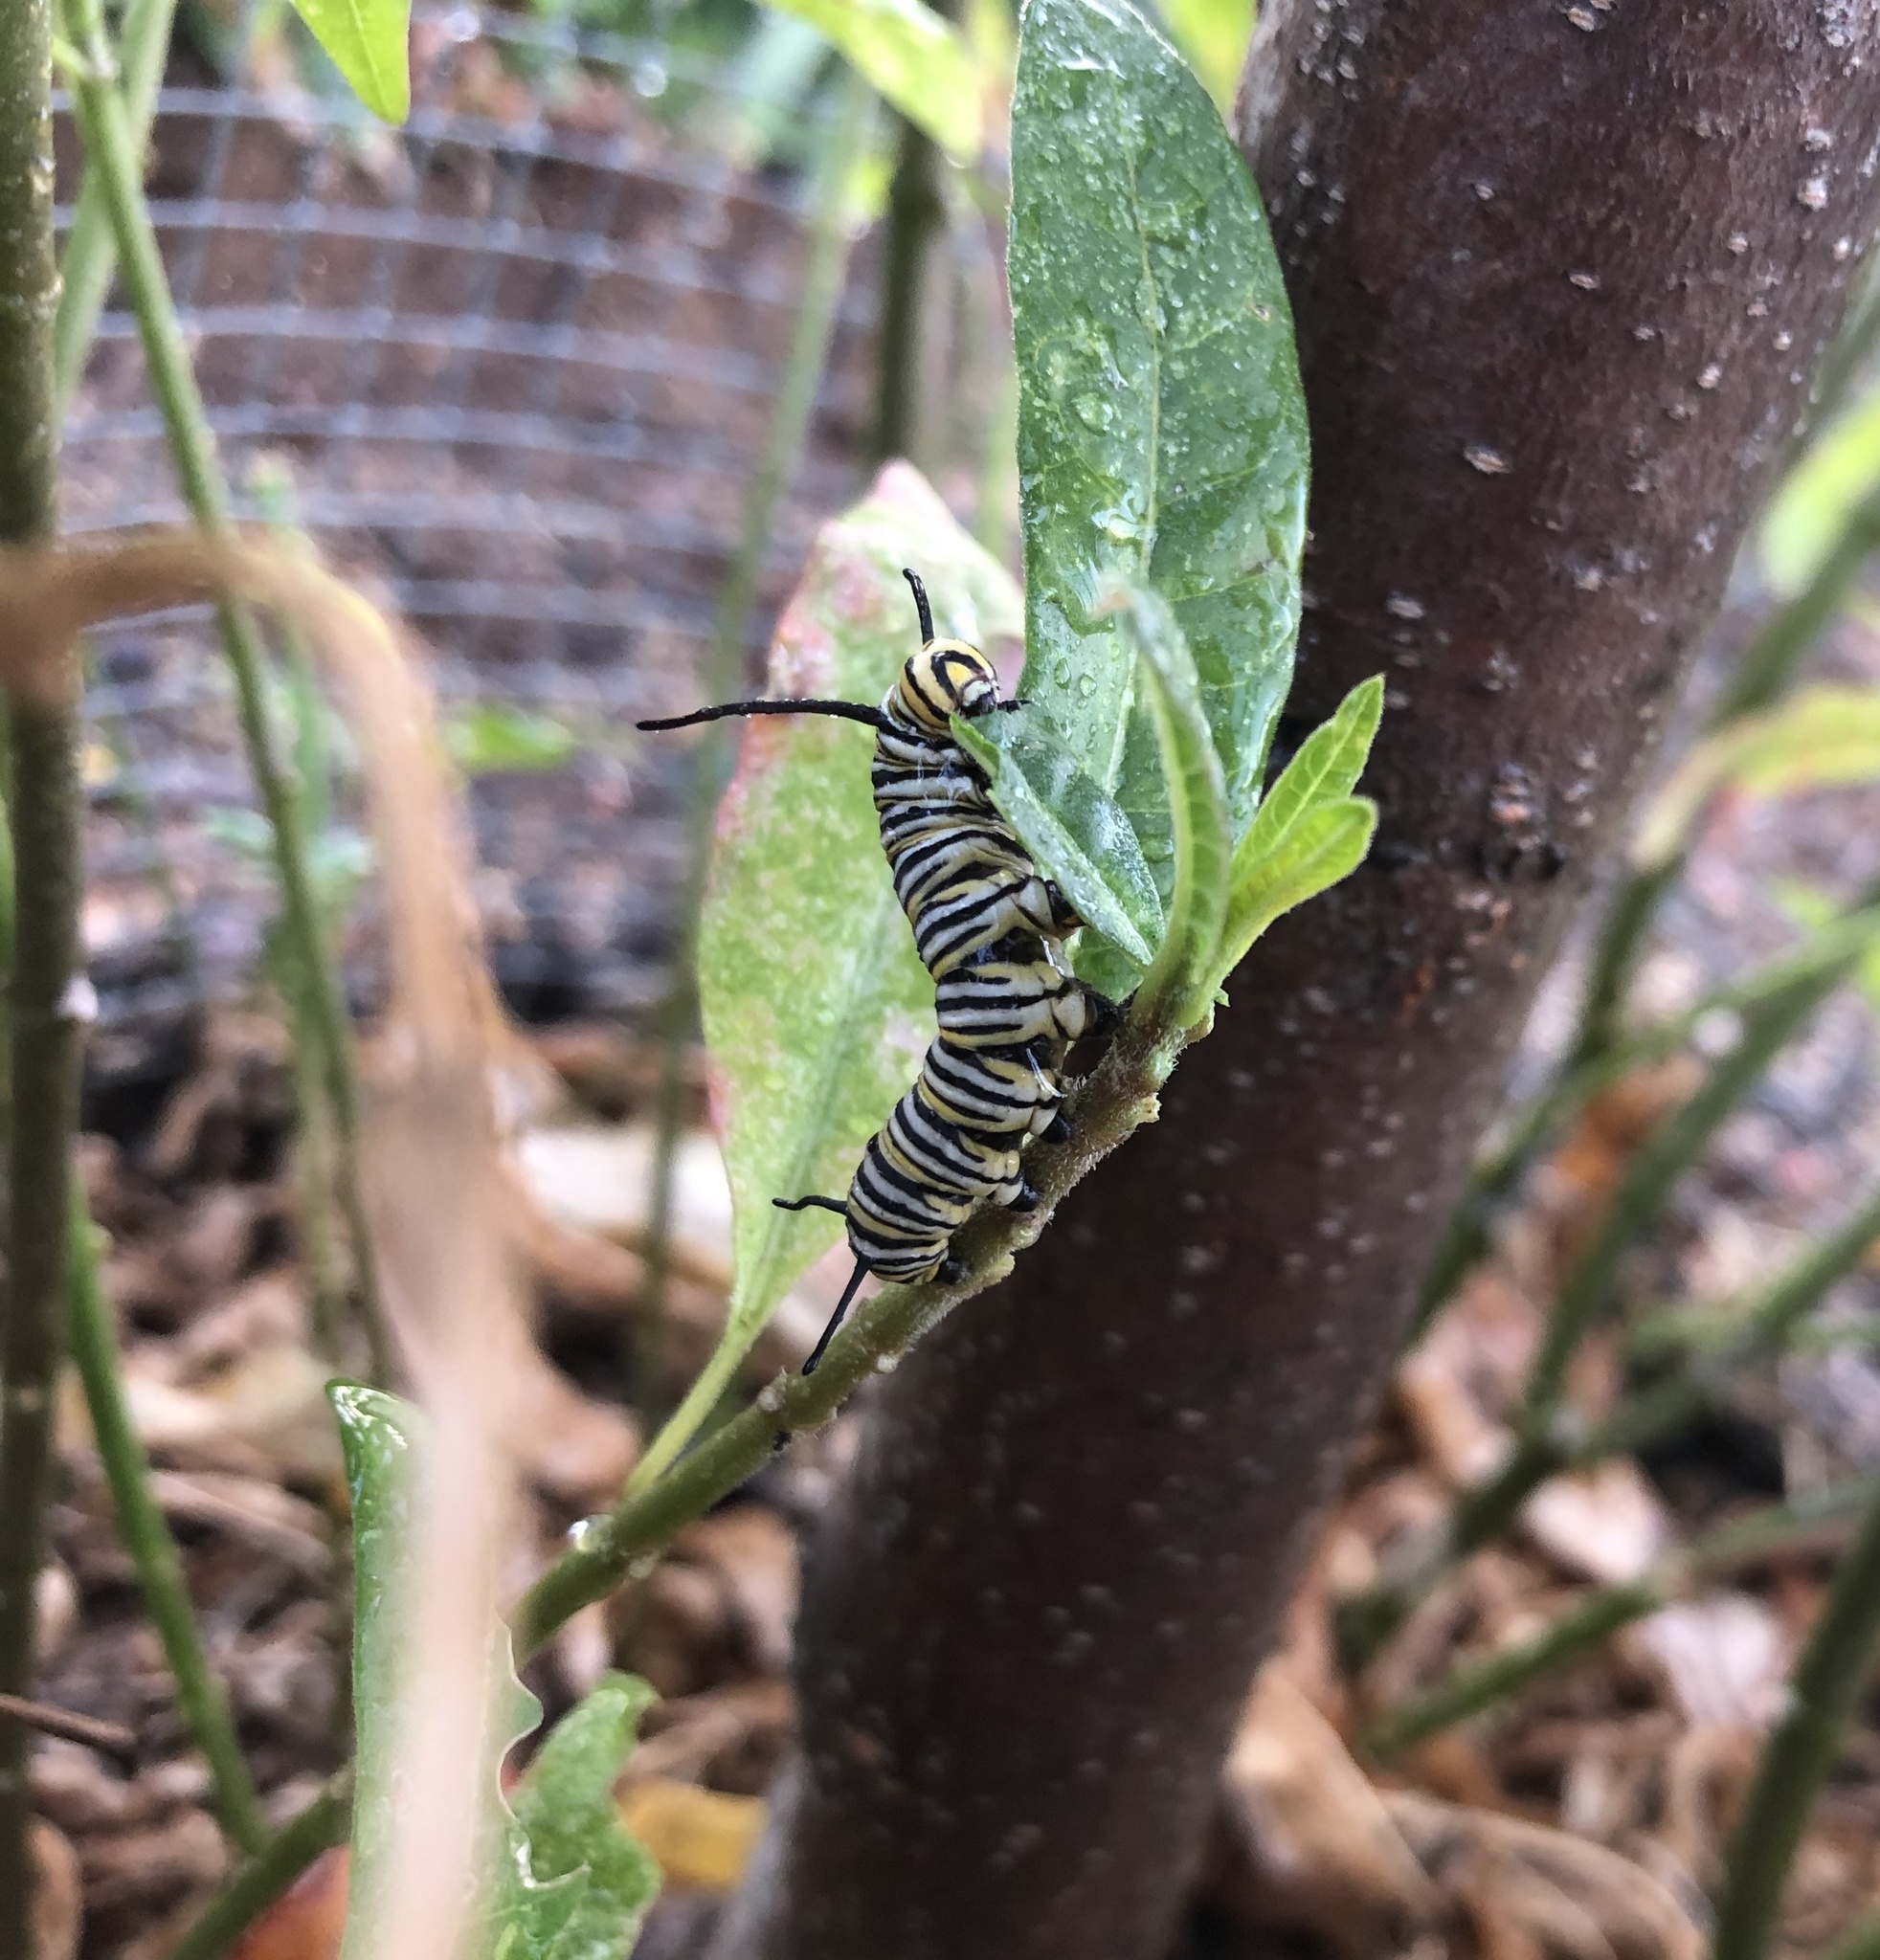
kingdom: Animalia
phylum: Arthropoda
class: Insecta
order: Lepidoptera
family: Nymphalidae
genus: Danaus
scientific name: Danaus plexippus
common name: Monarch
